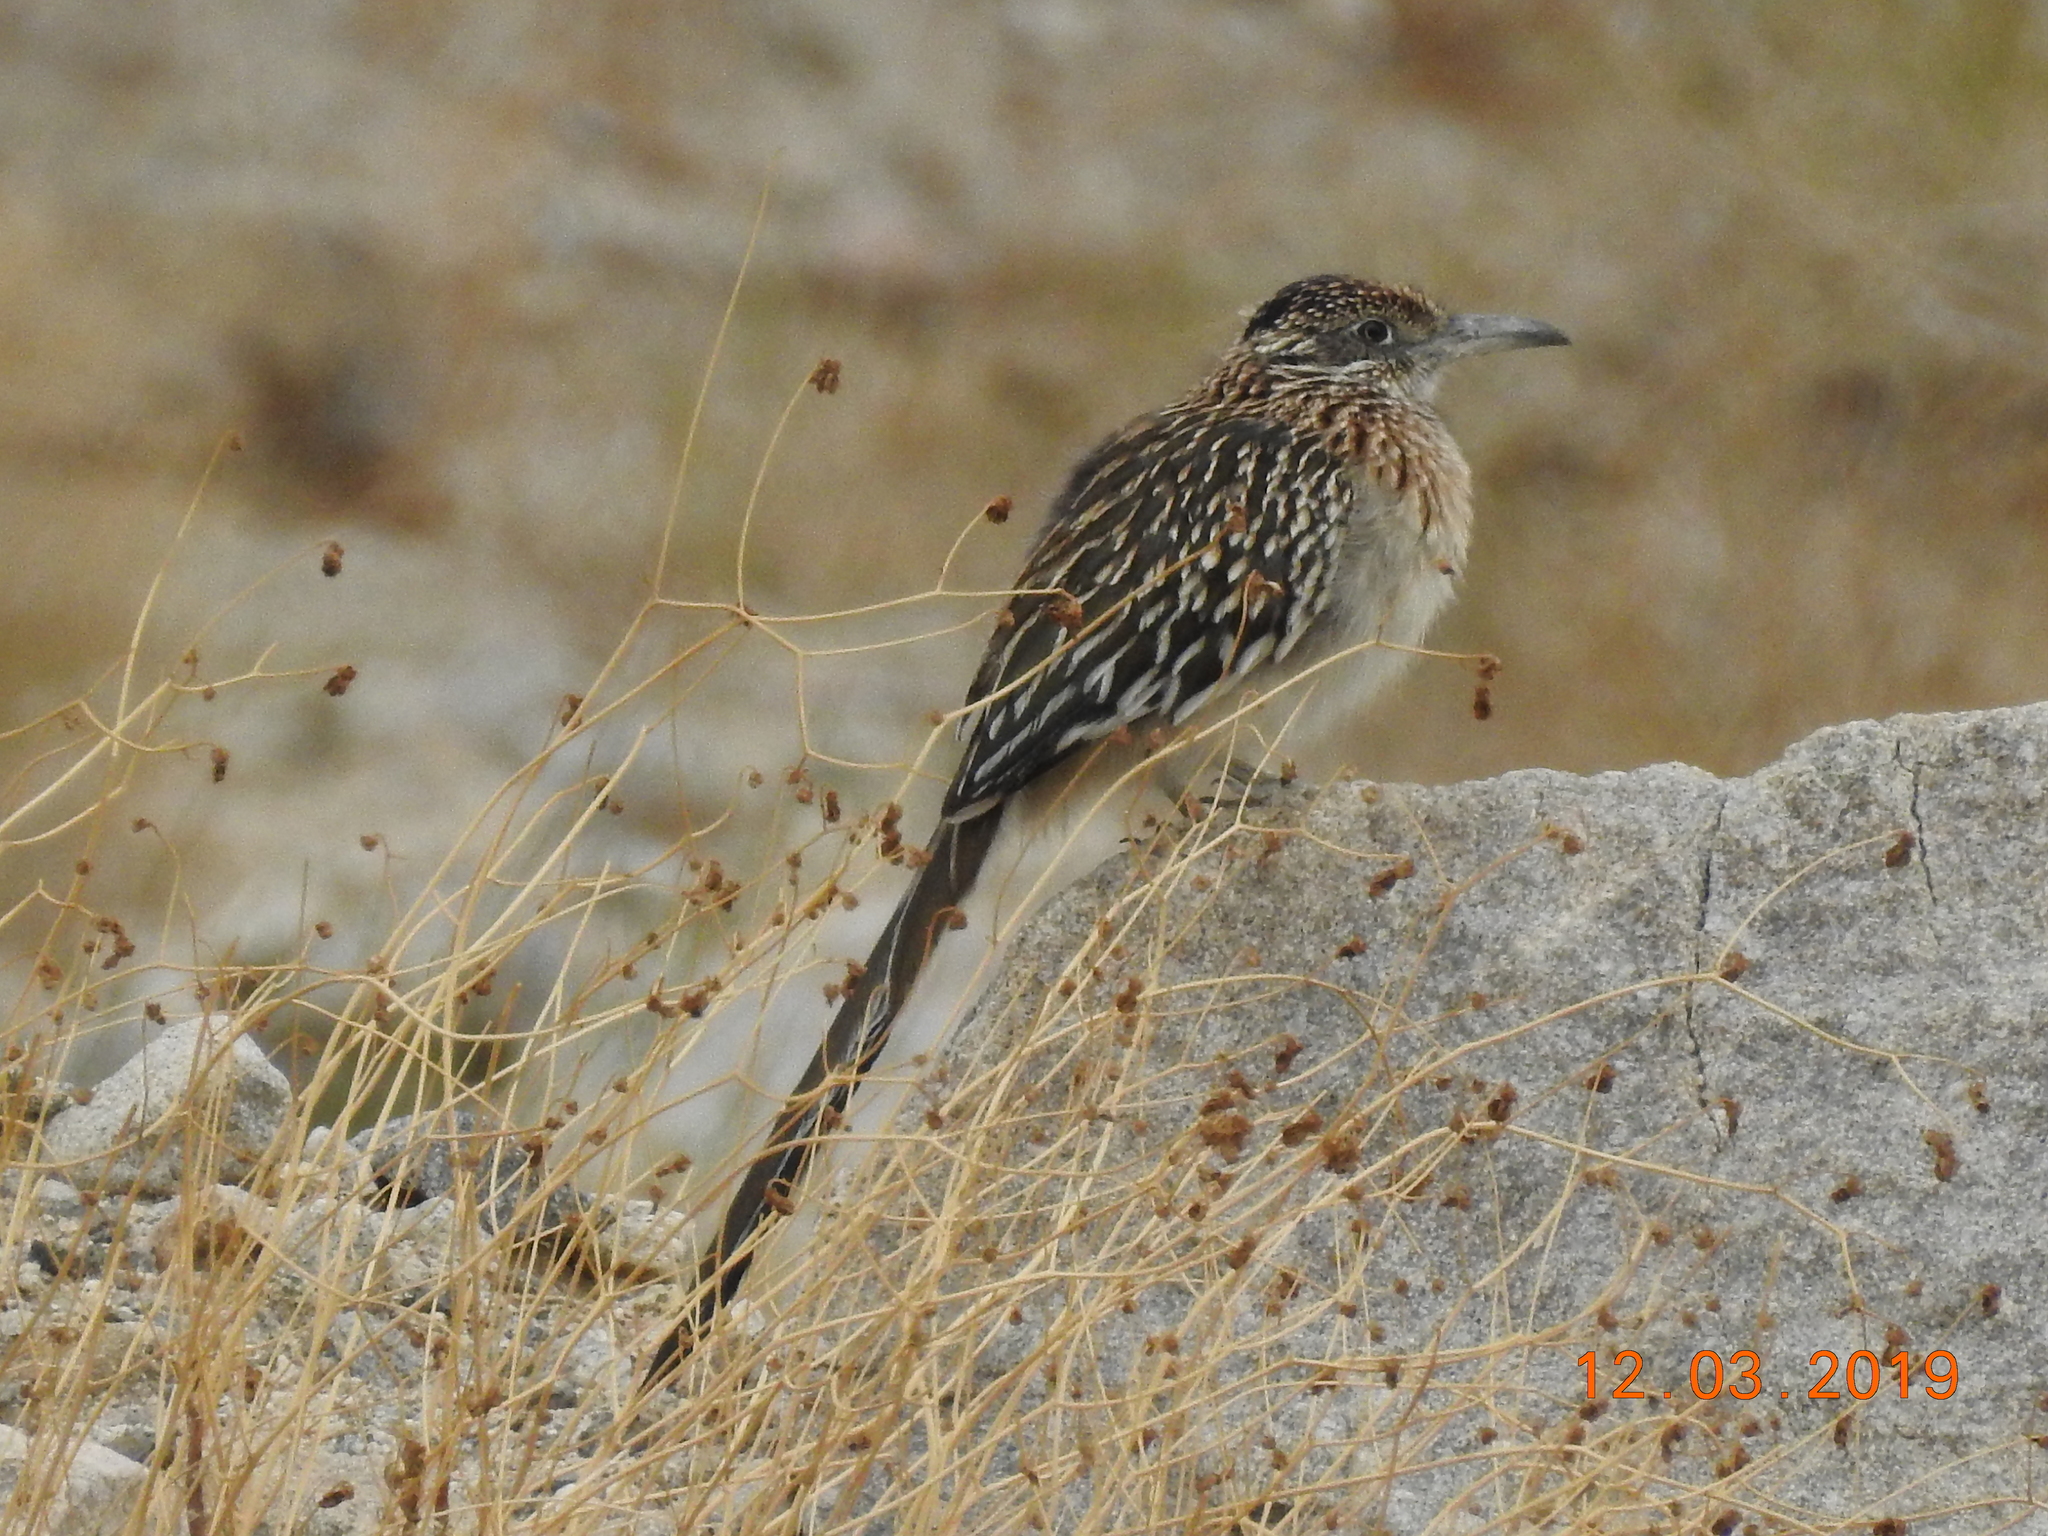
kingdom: Animalia
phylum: Chordata
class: Aves
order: Cuculiformes
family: Cuculidae
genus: Geococcyx
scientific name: Geococcyx californianus
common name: Greater roadrunner
